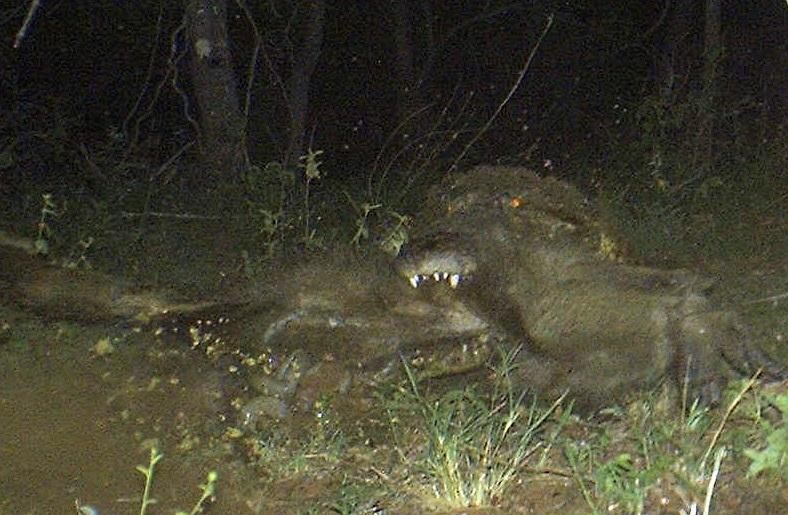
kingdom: Animalia
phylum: Chordata
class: Crocodylia
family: Crocodylidae
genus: Crocodylus
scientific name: Crocodylus niloticus
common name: Nile crocodile
